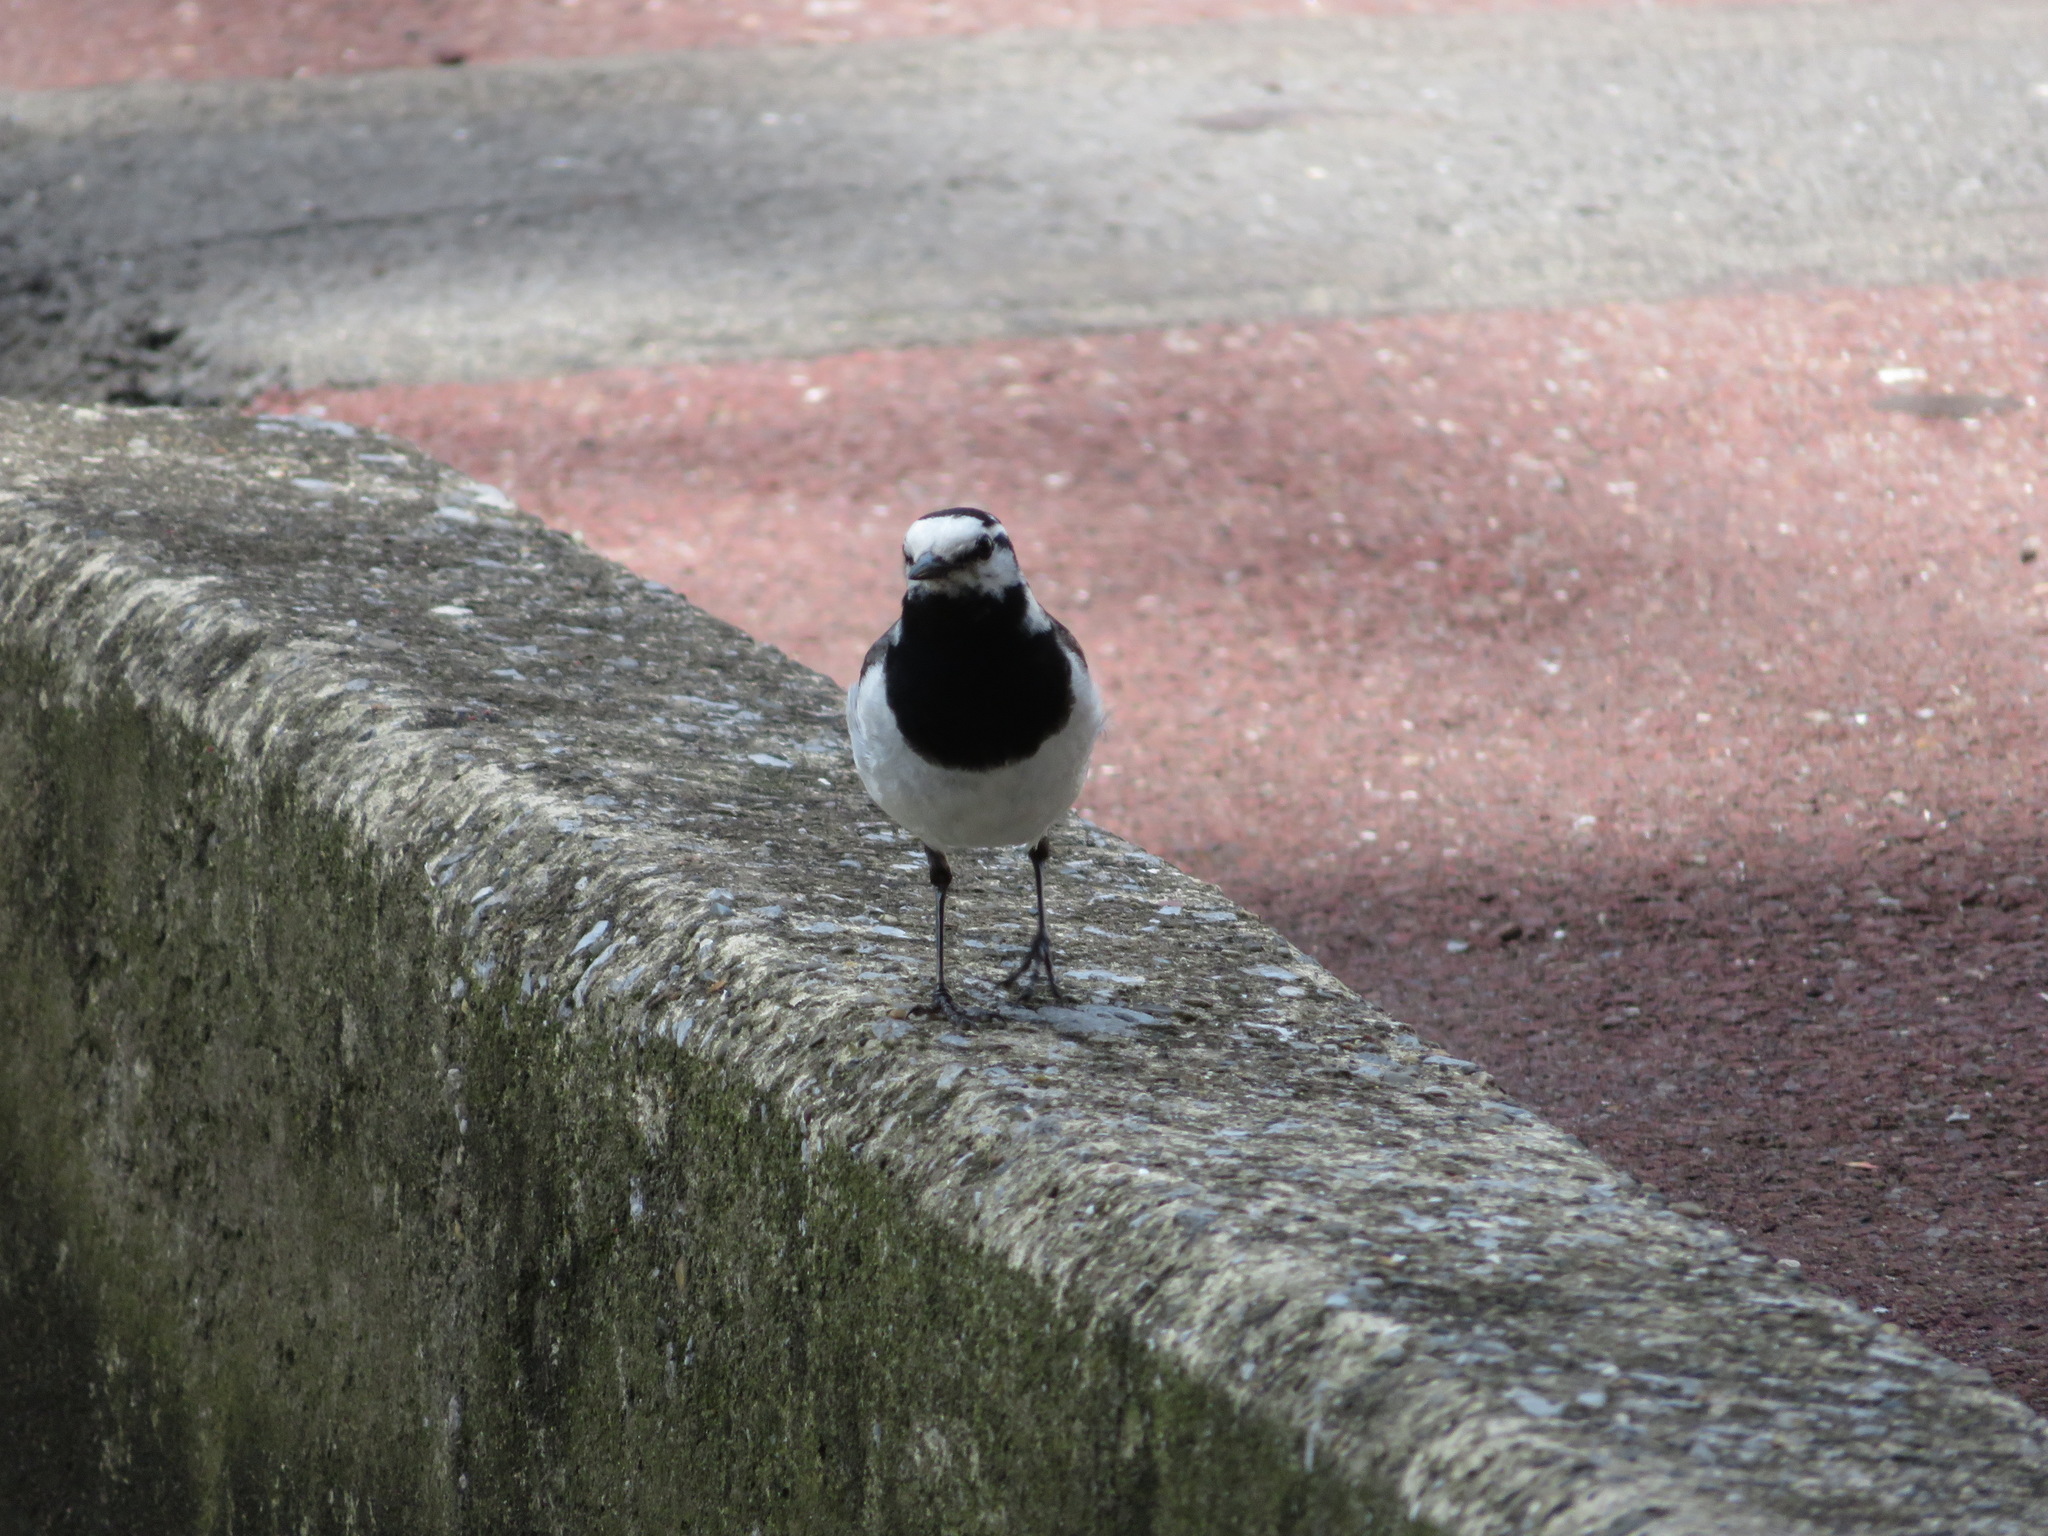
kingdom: Animalia
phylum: Chordata
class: Aves
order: Passeriformes
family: Motacillidae
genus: Motacilla
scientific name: Motacilla alba
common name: White wagtail
